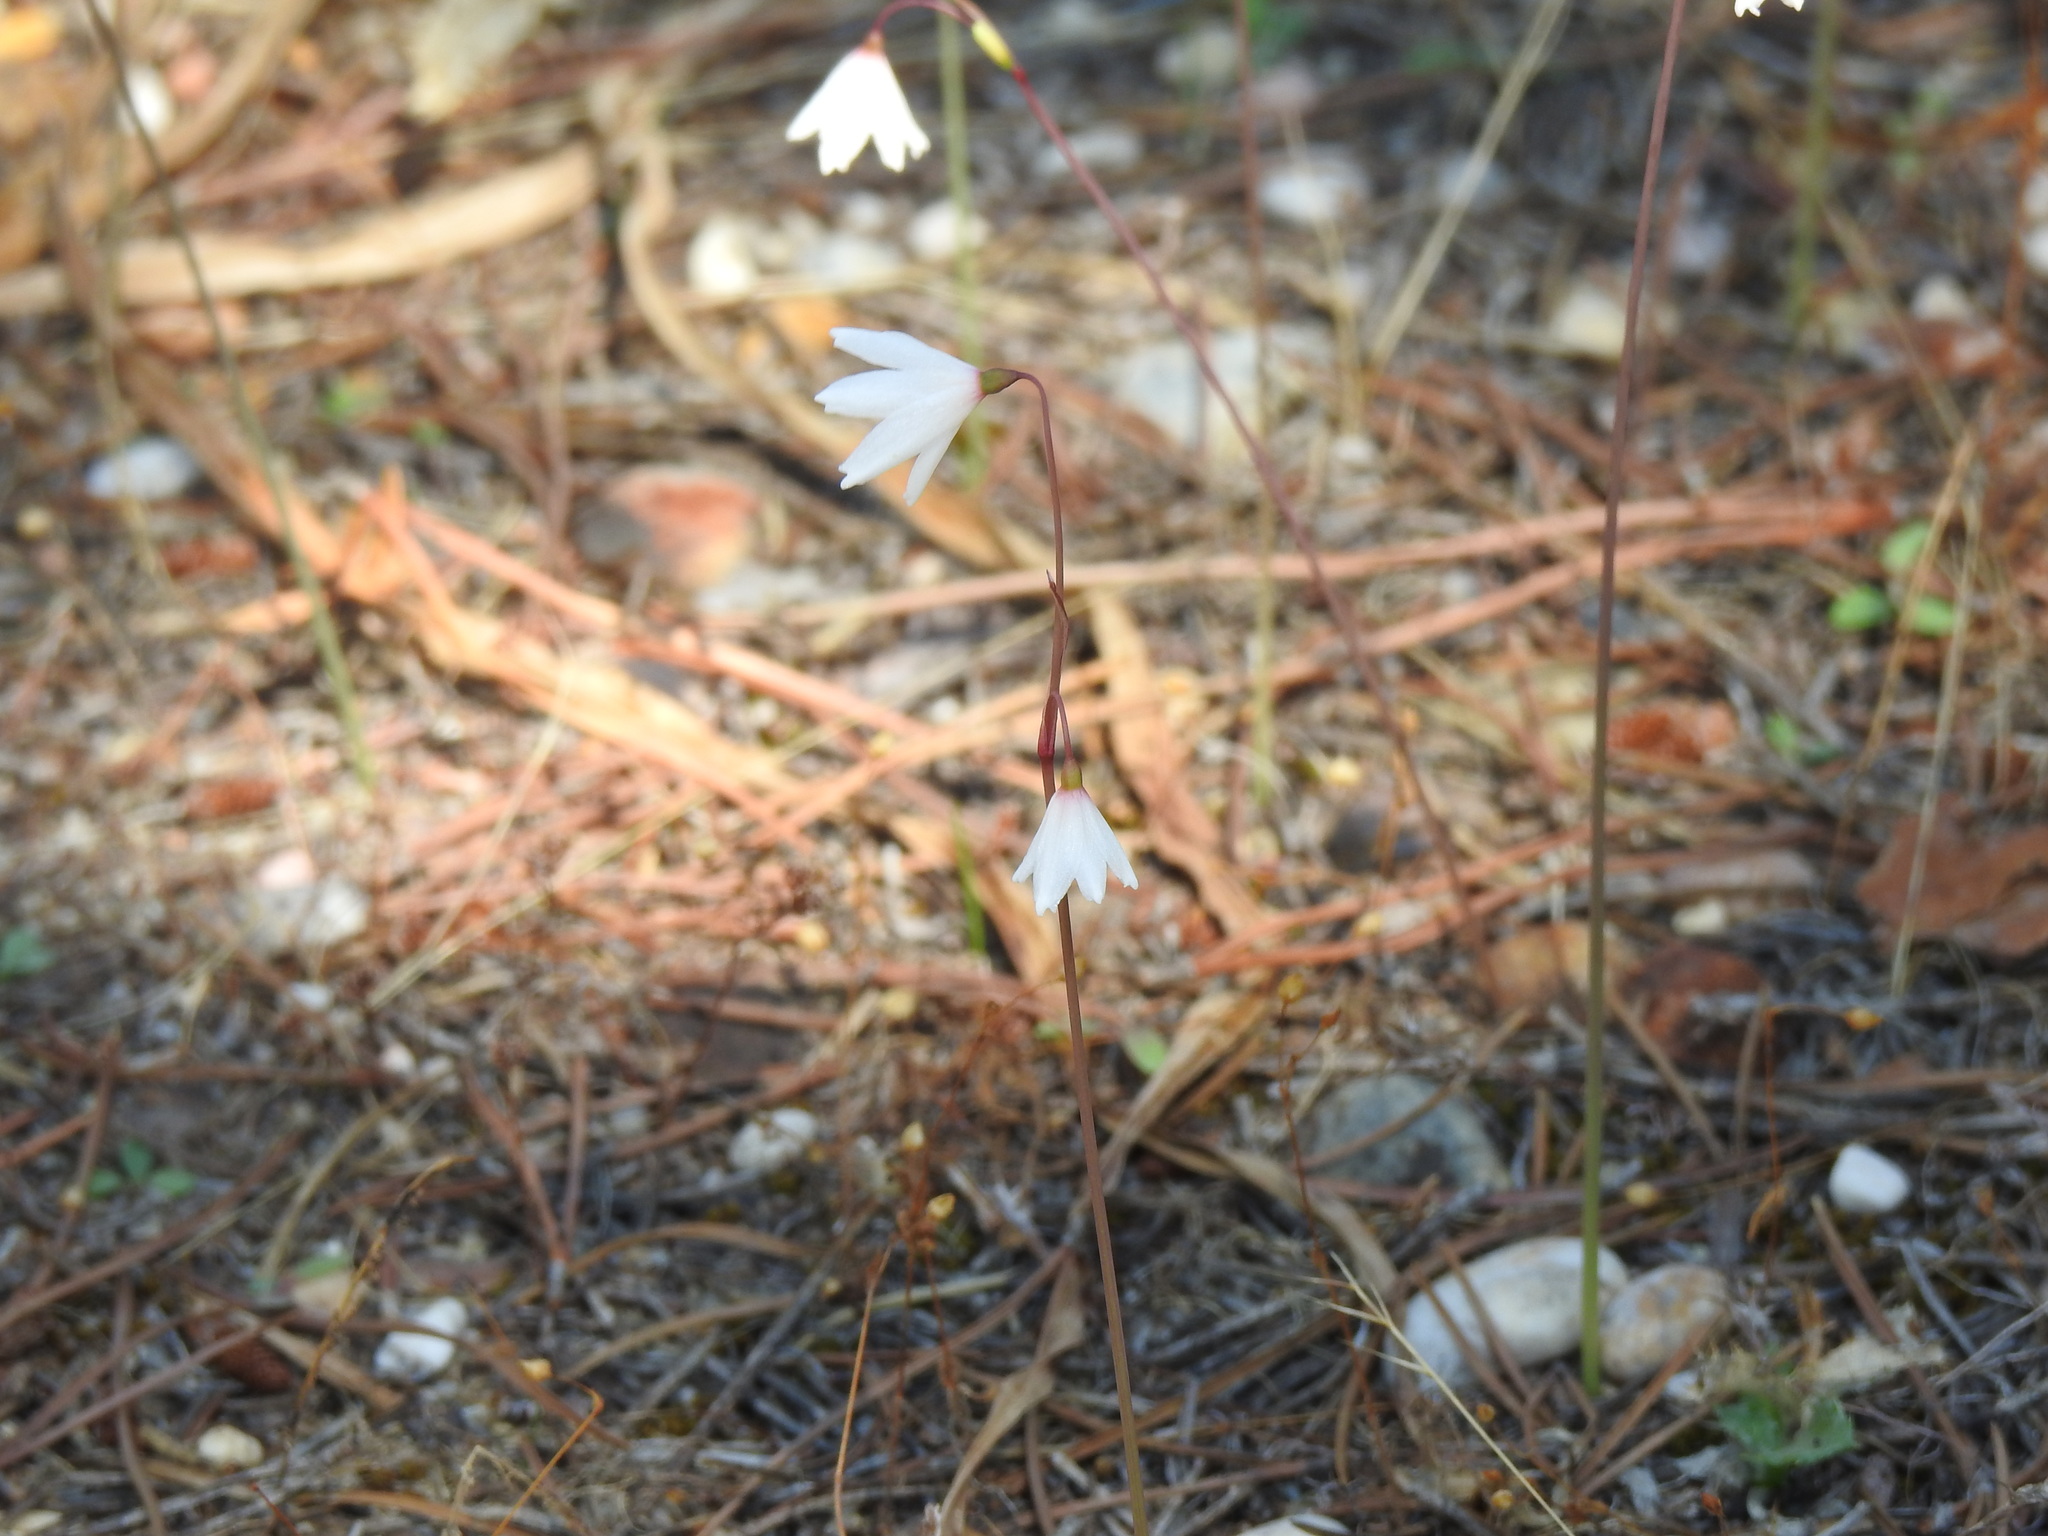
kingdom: Plantae
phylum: Tracheophyta
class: Liliopsida
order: Asparagales
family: Amaryllidaceae
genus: Acis
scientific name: Acis autumnalis
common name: Autumn snowflake
